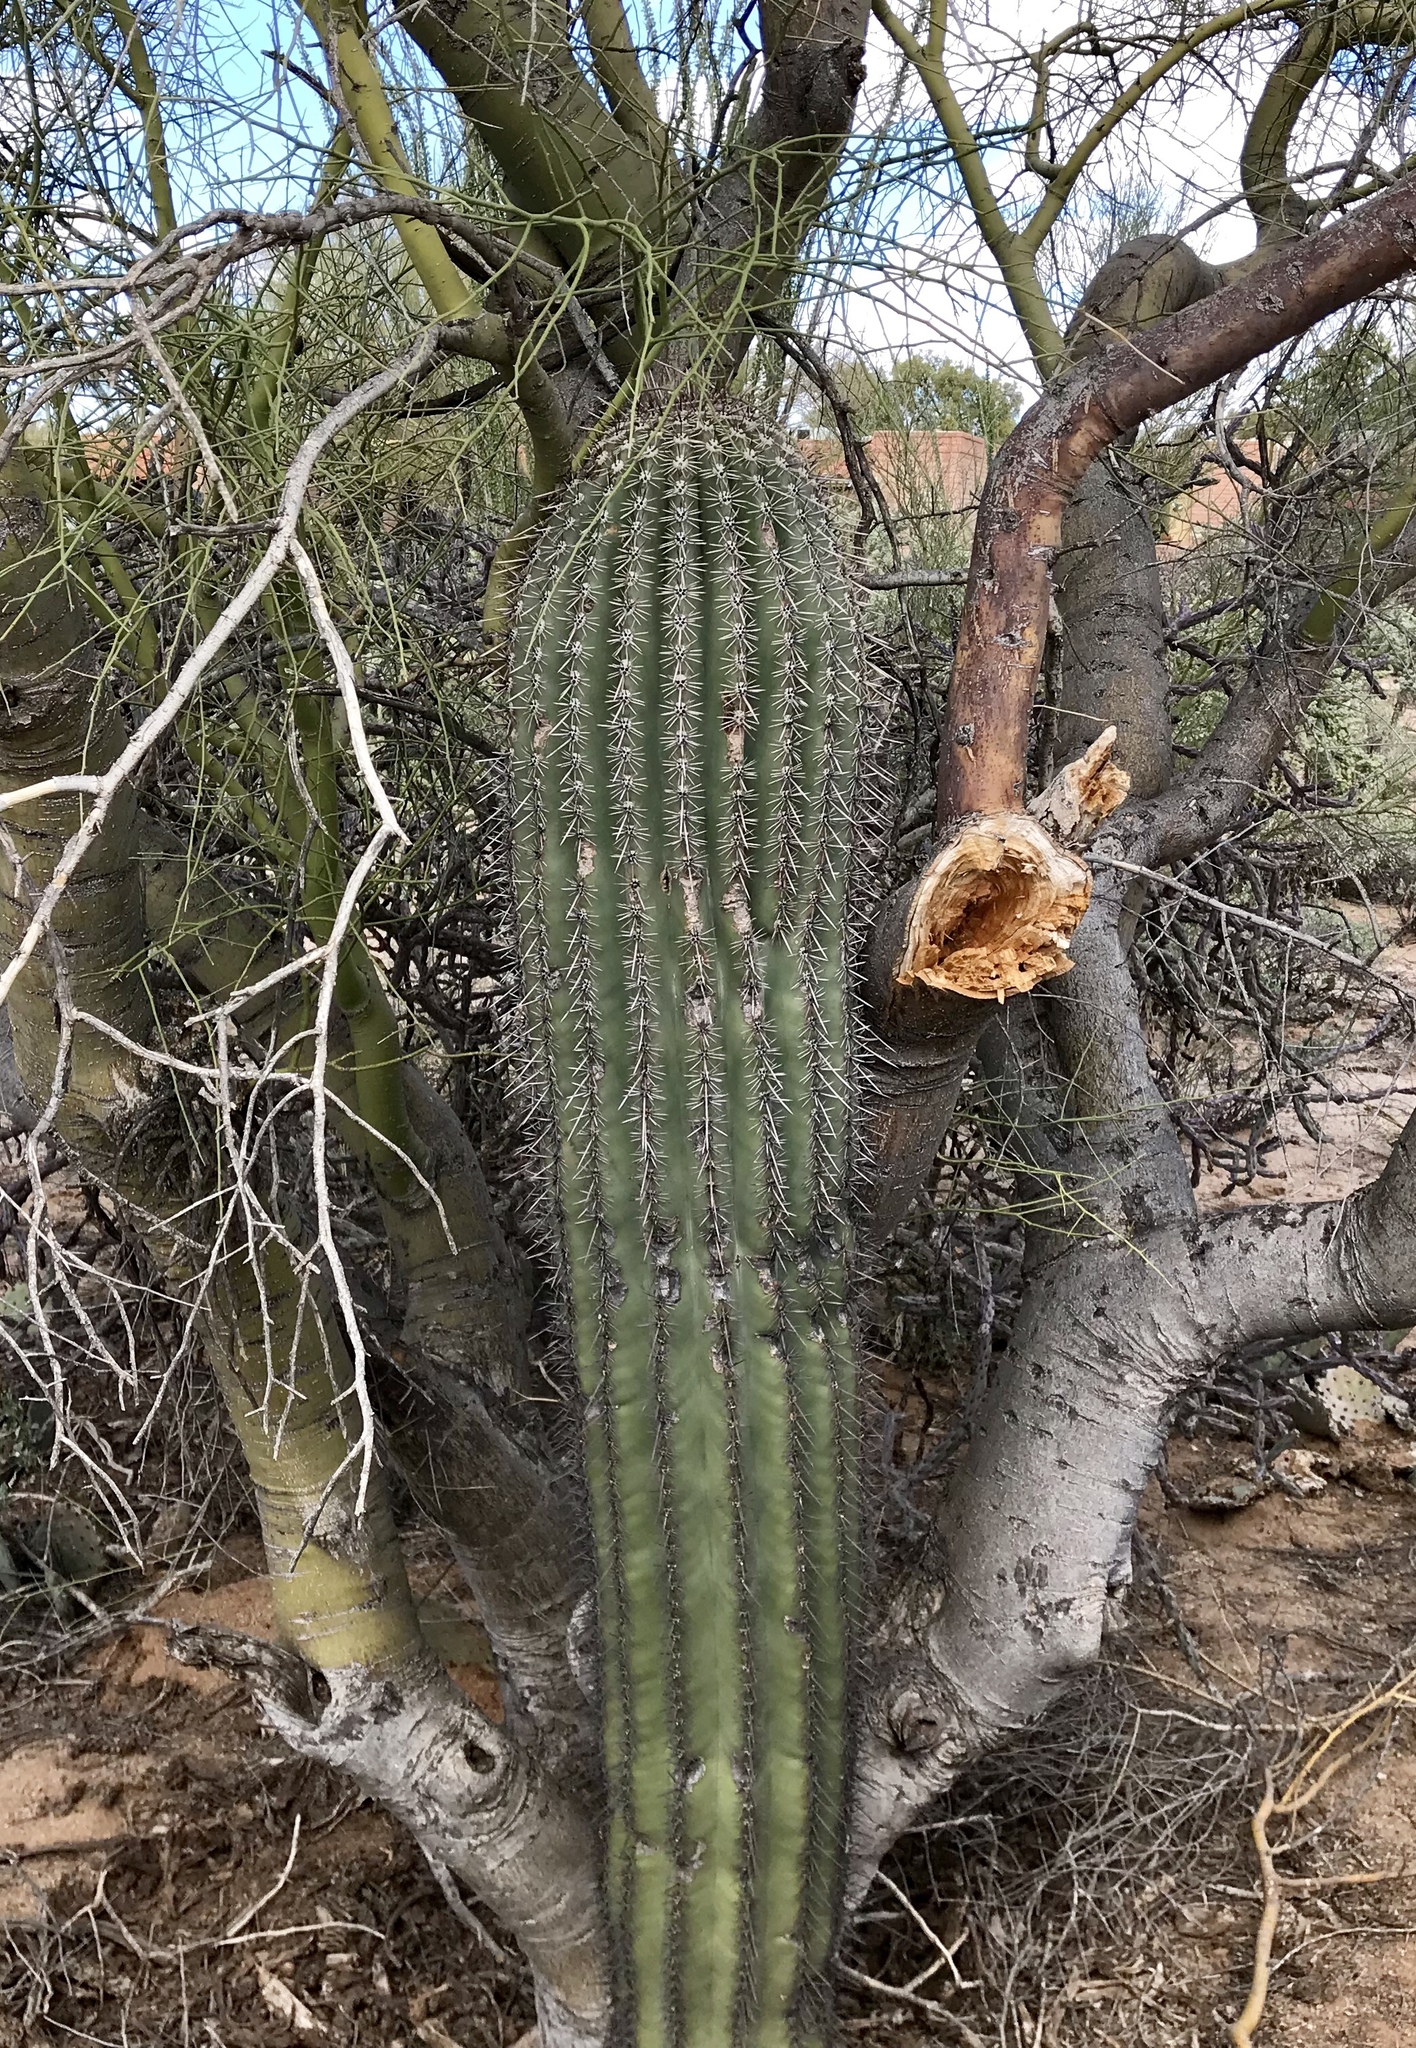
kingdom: Plantae
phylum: Tracheophyta
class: Magnoliopsida
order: Caryophyllales
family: Cactaceae
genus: Carnegiea
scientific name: Carnegiea gigantea
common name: Saguaro
